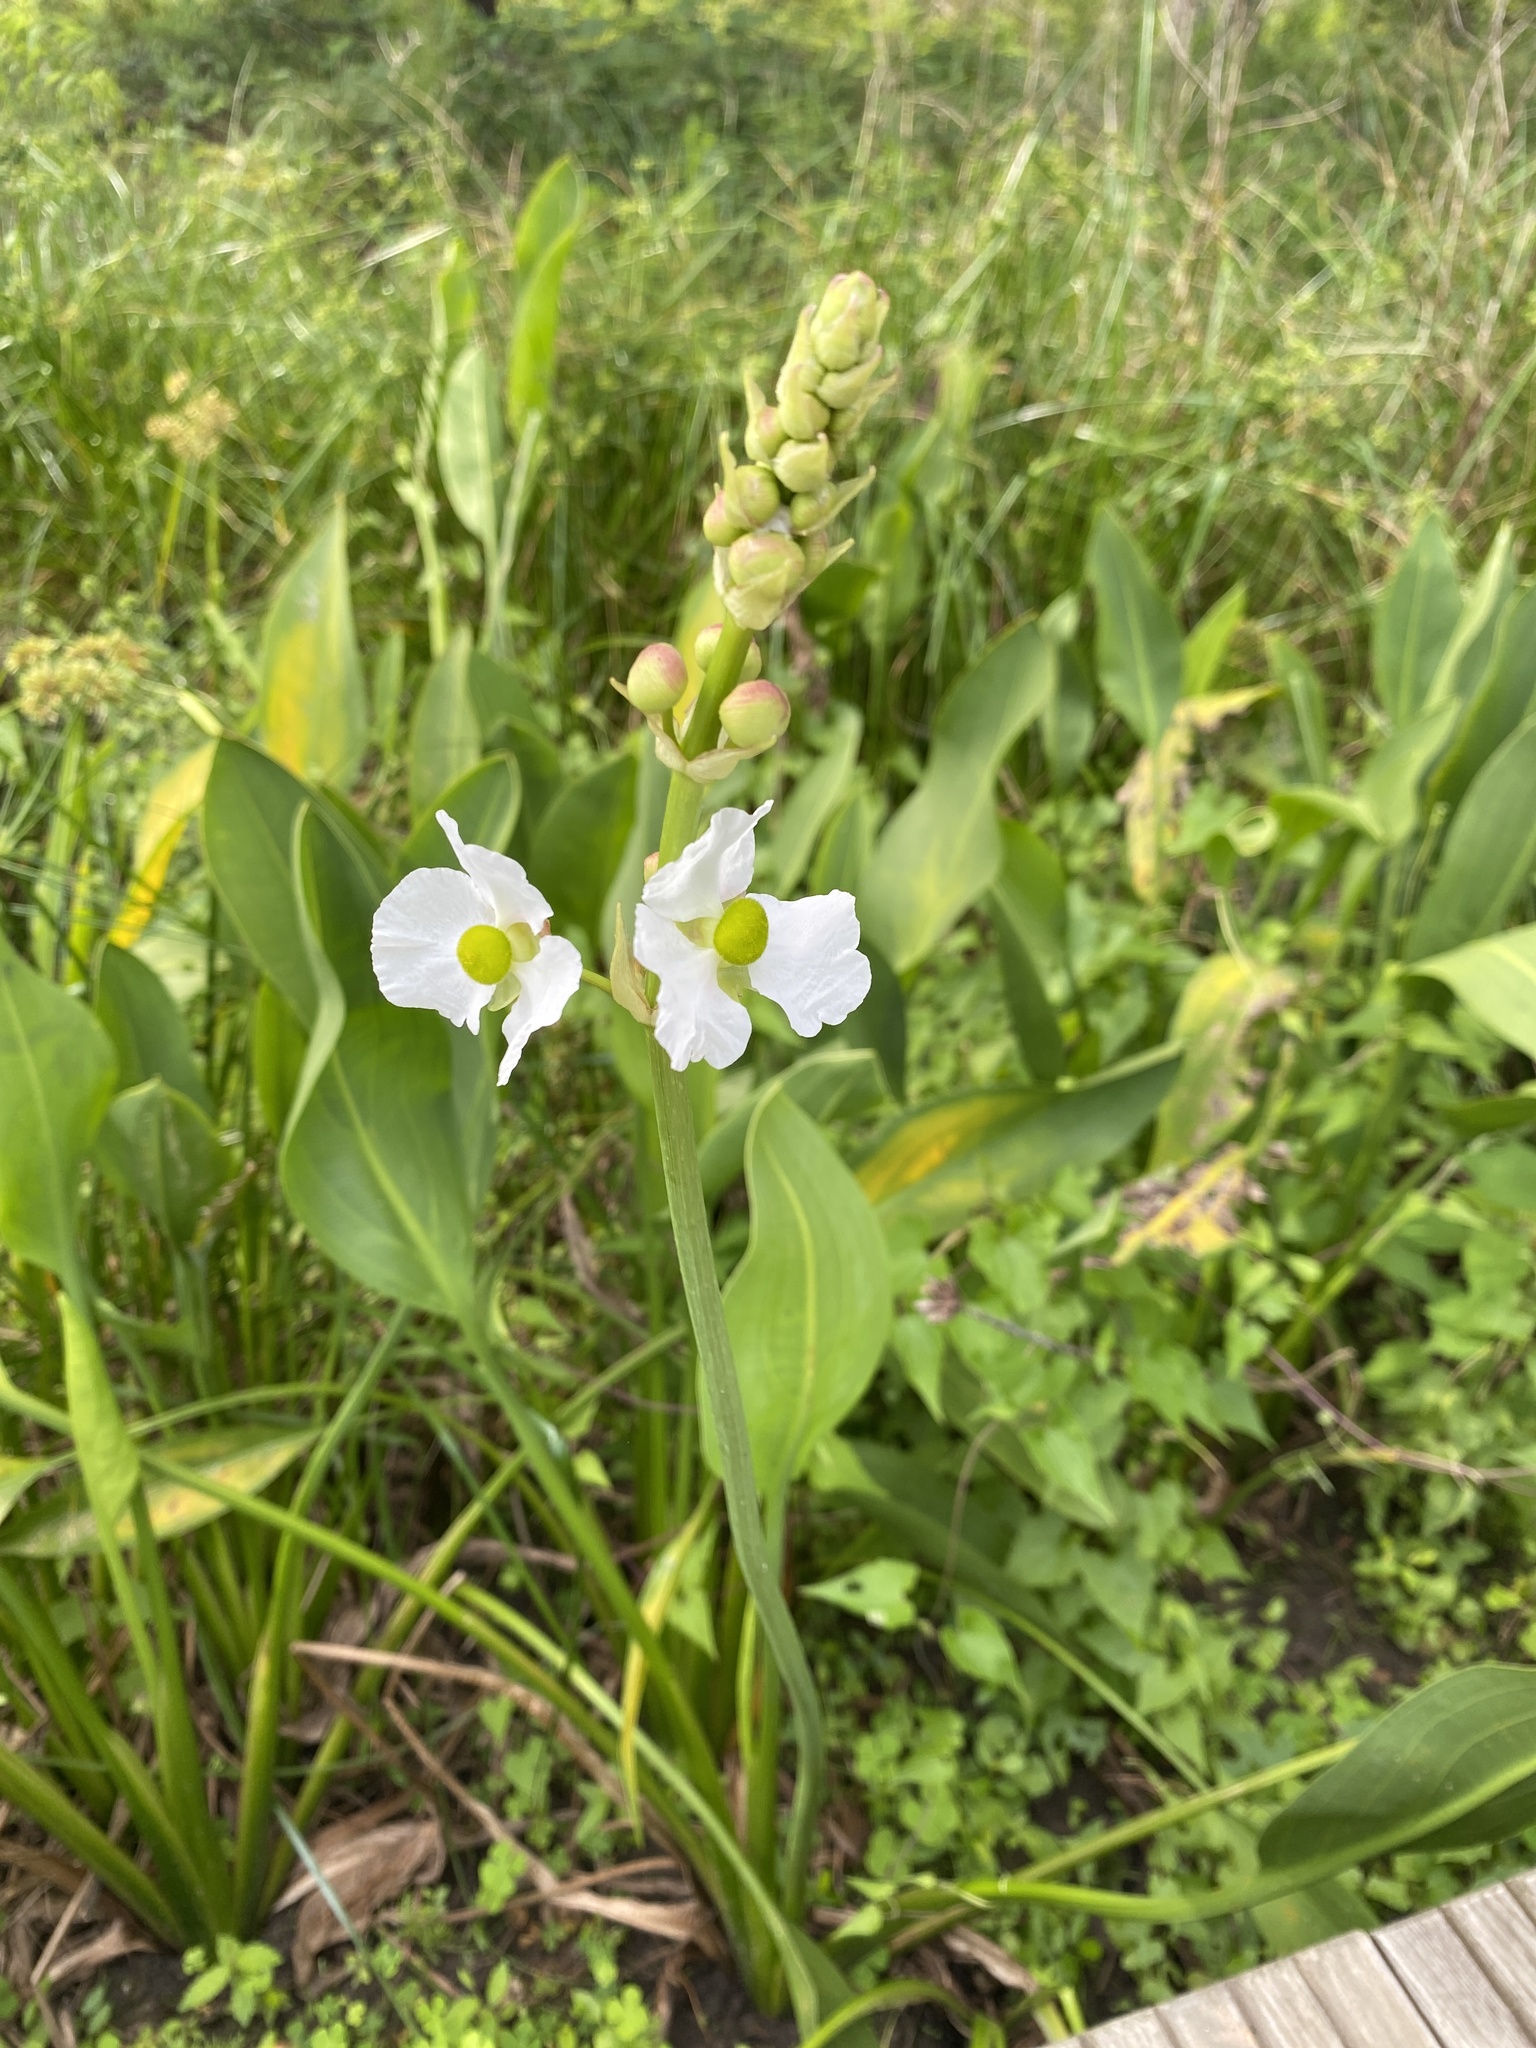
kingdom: Plantae
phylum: Tracheophyta
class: Liliopsida
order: Alismatales
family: Alismataceae
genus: Sagittaria
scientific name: Sagittaria lancifolia
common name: Lance-leaf arrowhead
